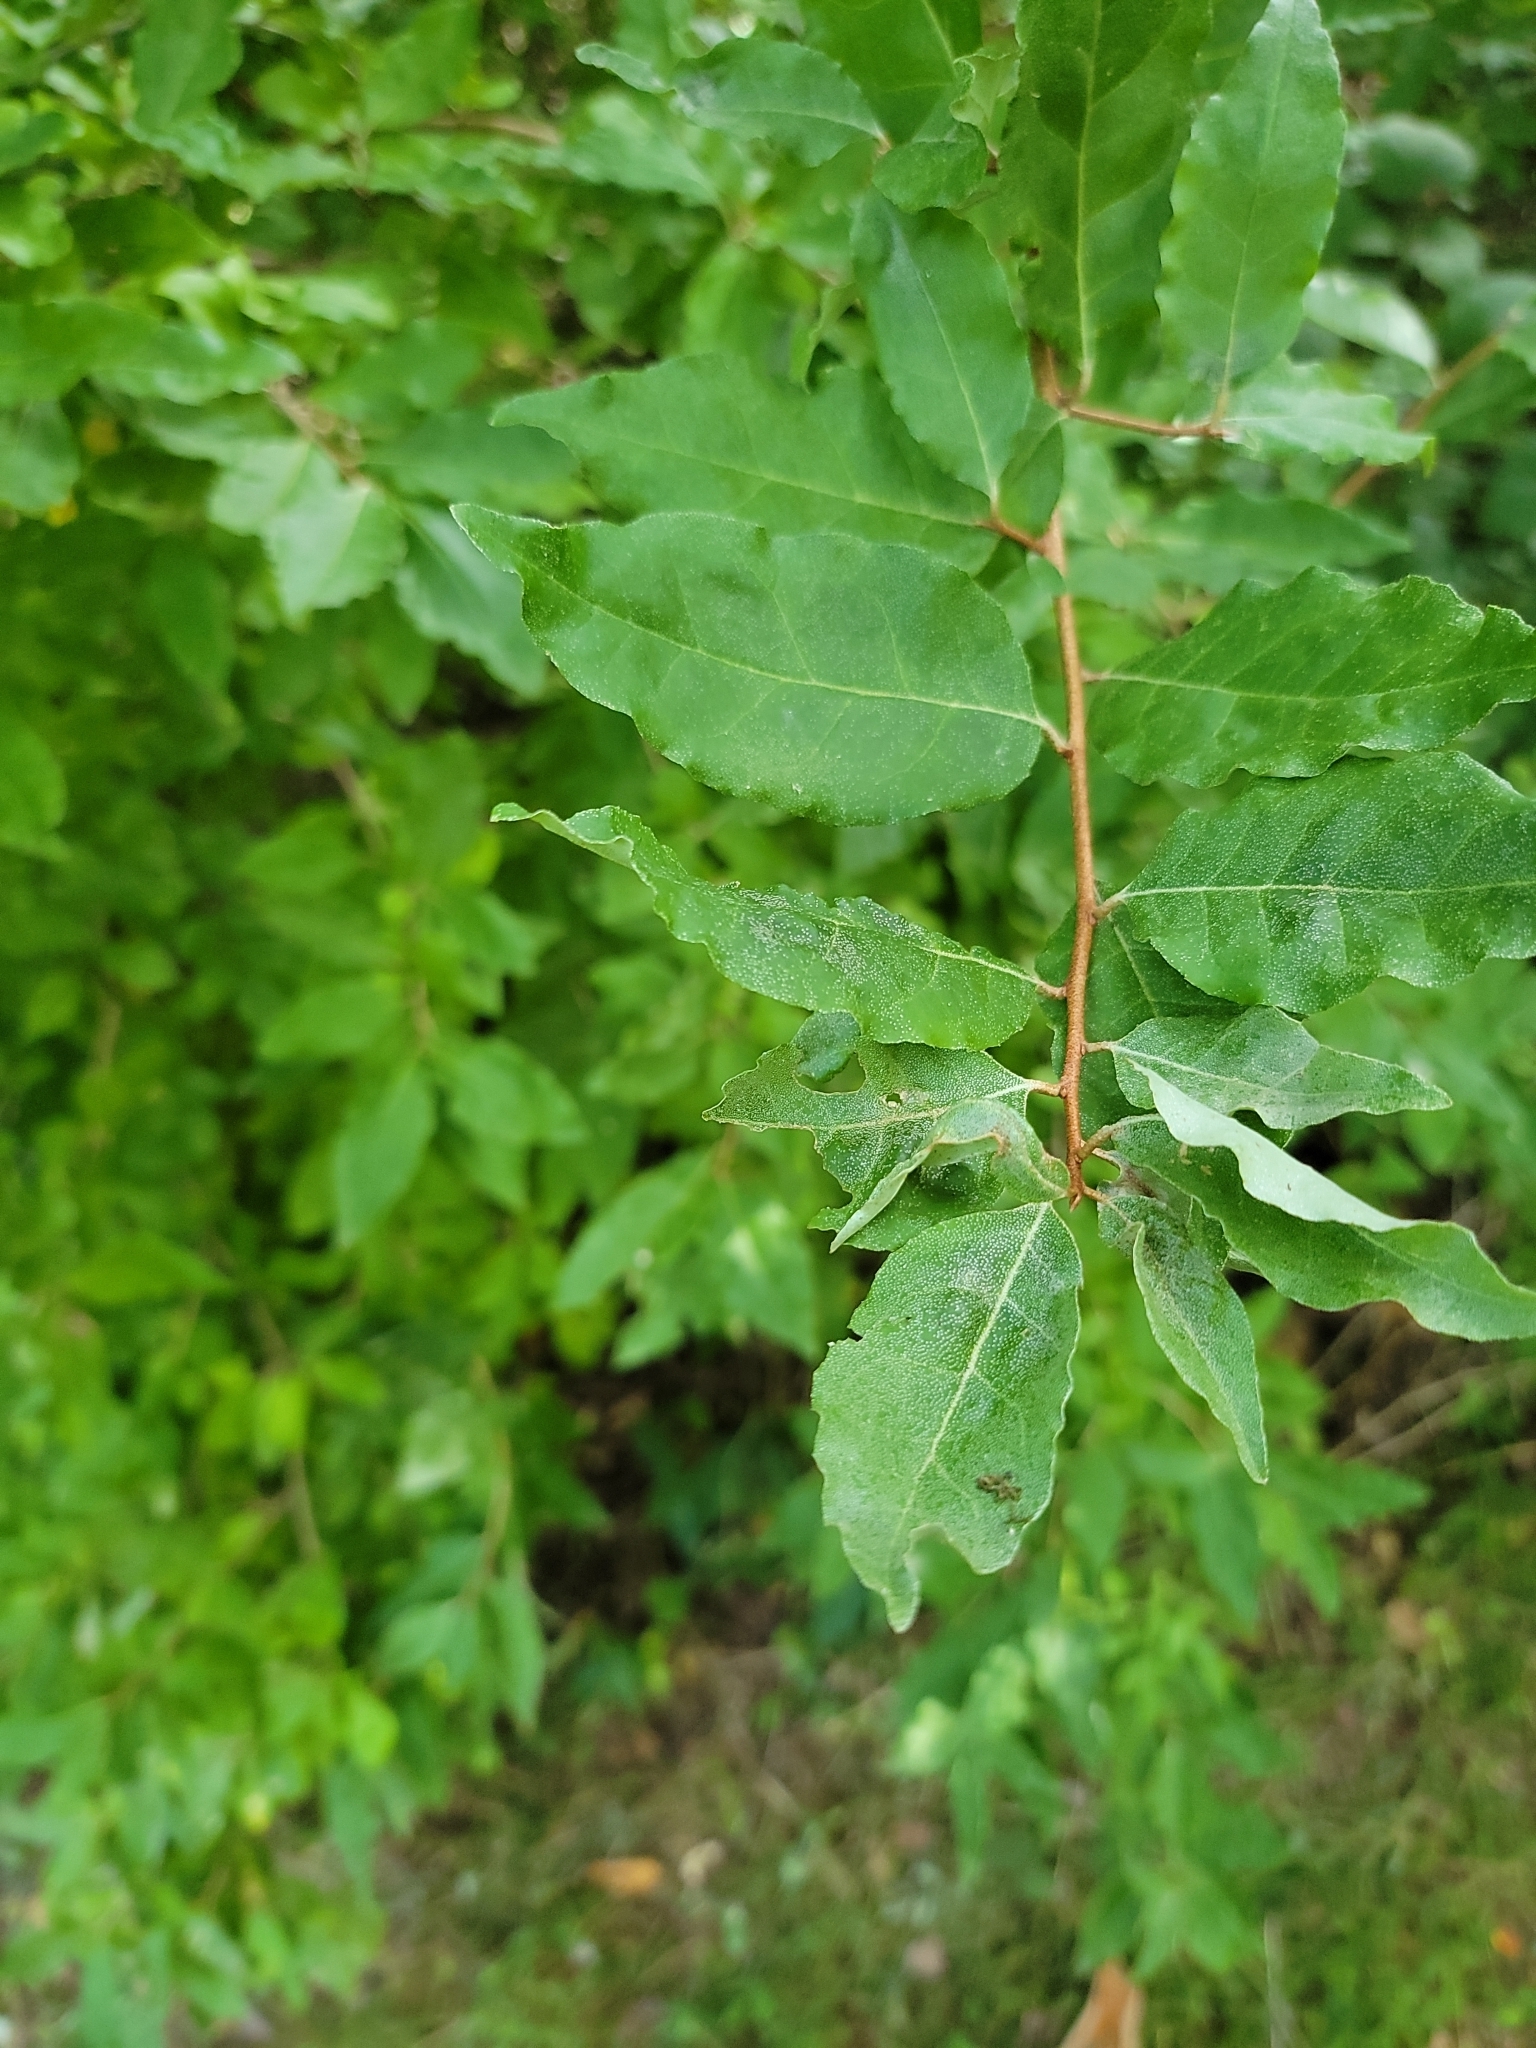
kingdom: Plantae
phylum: Tracheophyta
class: Magnoliopsida
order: Rosales
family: Elaeagnaceae
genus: Elaeagnus
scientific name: Elaeagnus umbellata
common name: Autumn olive
